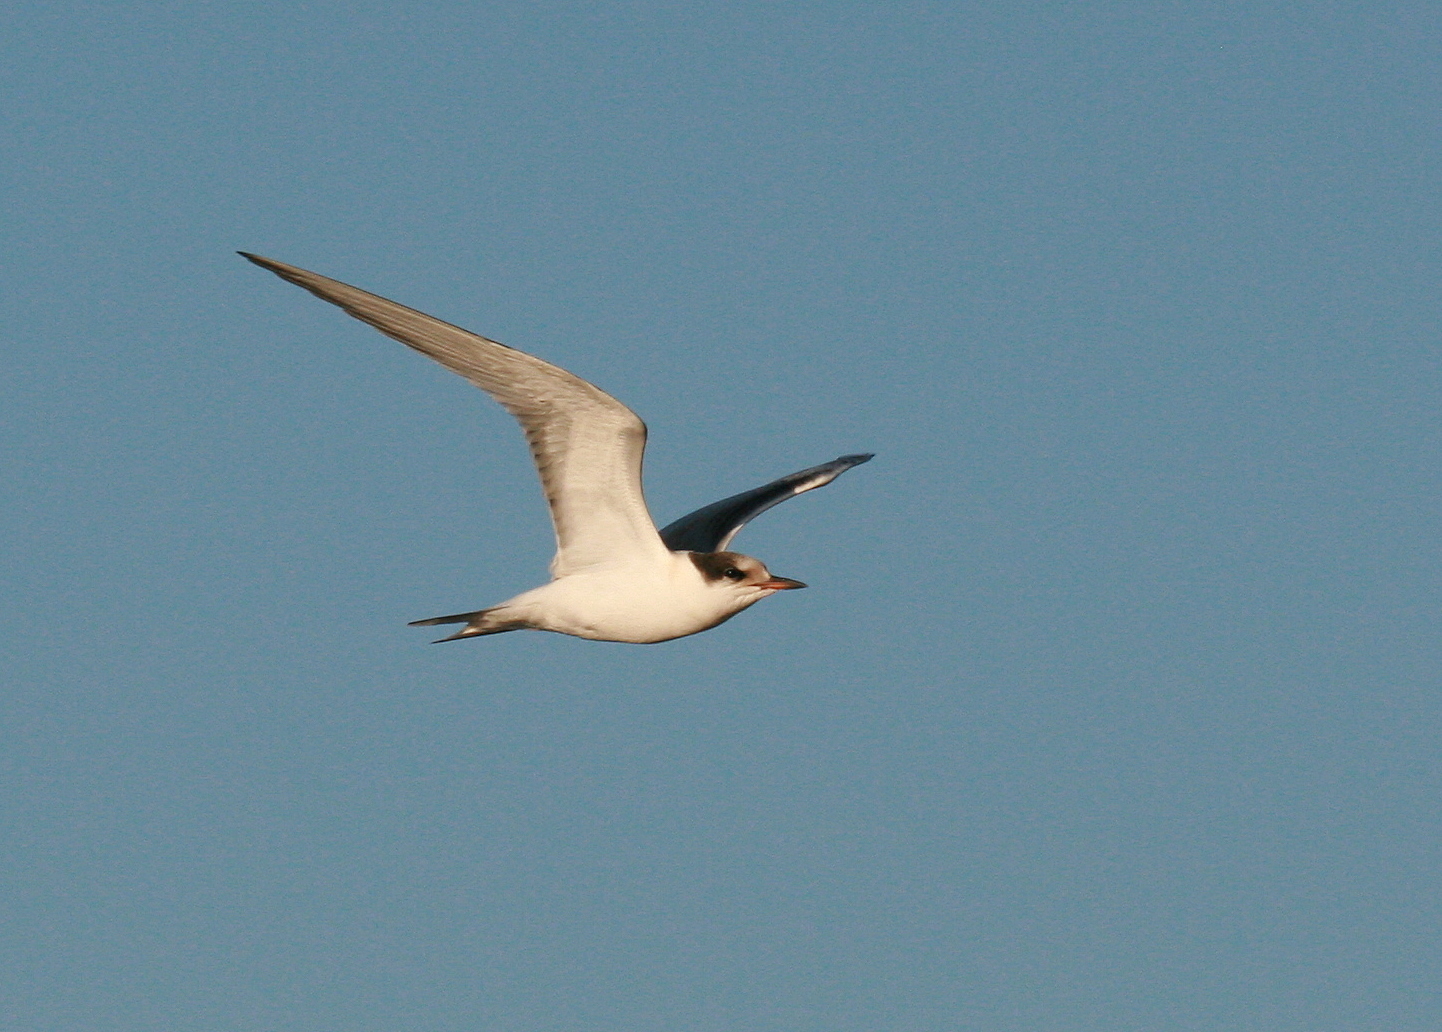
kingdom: Animalia
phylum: Chordata
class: Aves
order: Charadriiformes
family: Laridae
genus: Sterna
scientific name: Sterna paradisaea
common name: Arctic tern
